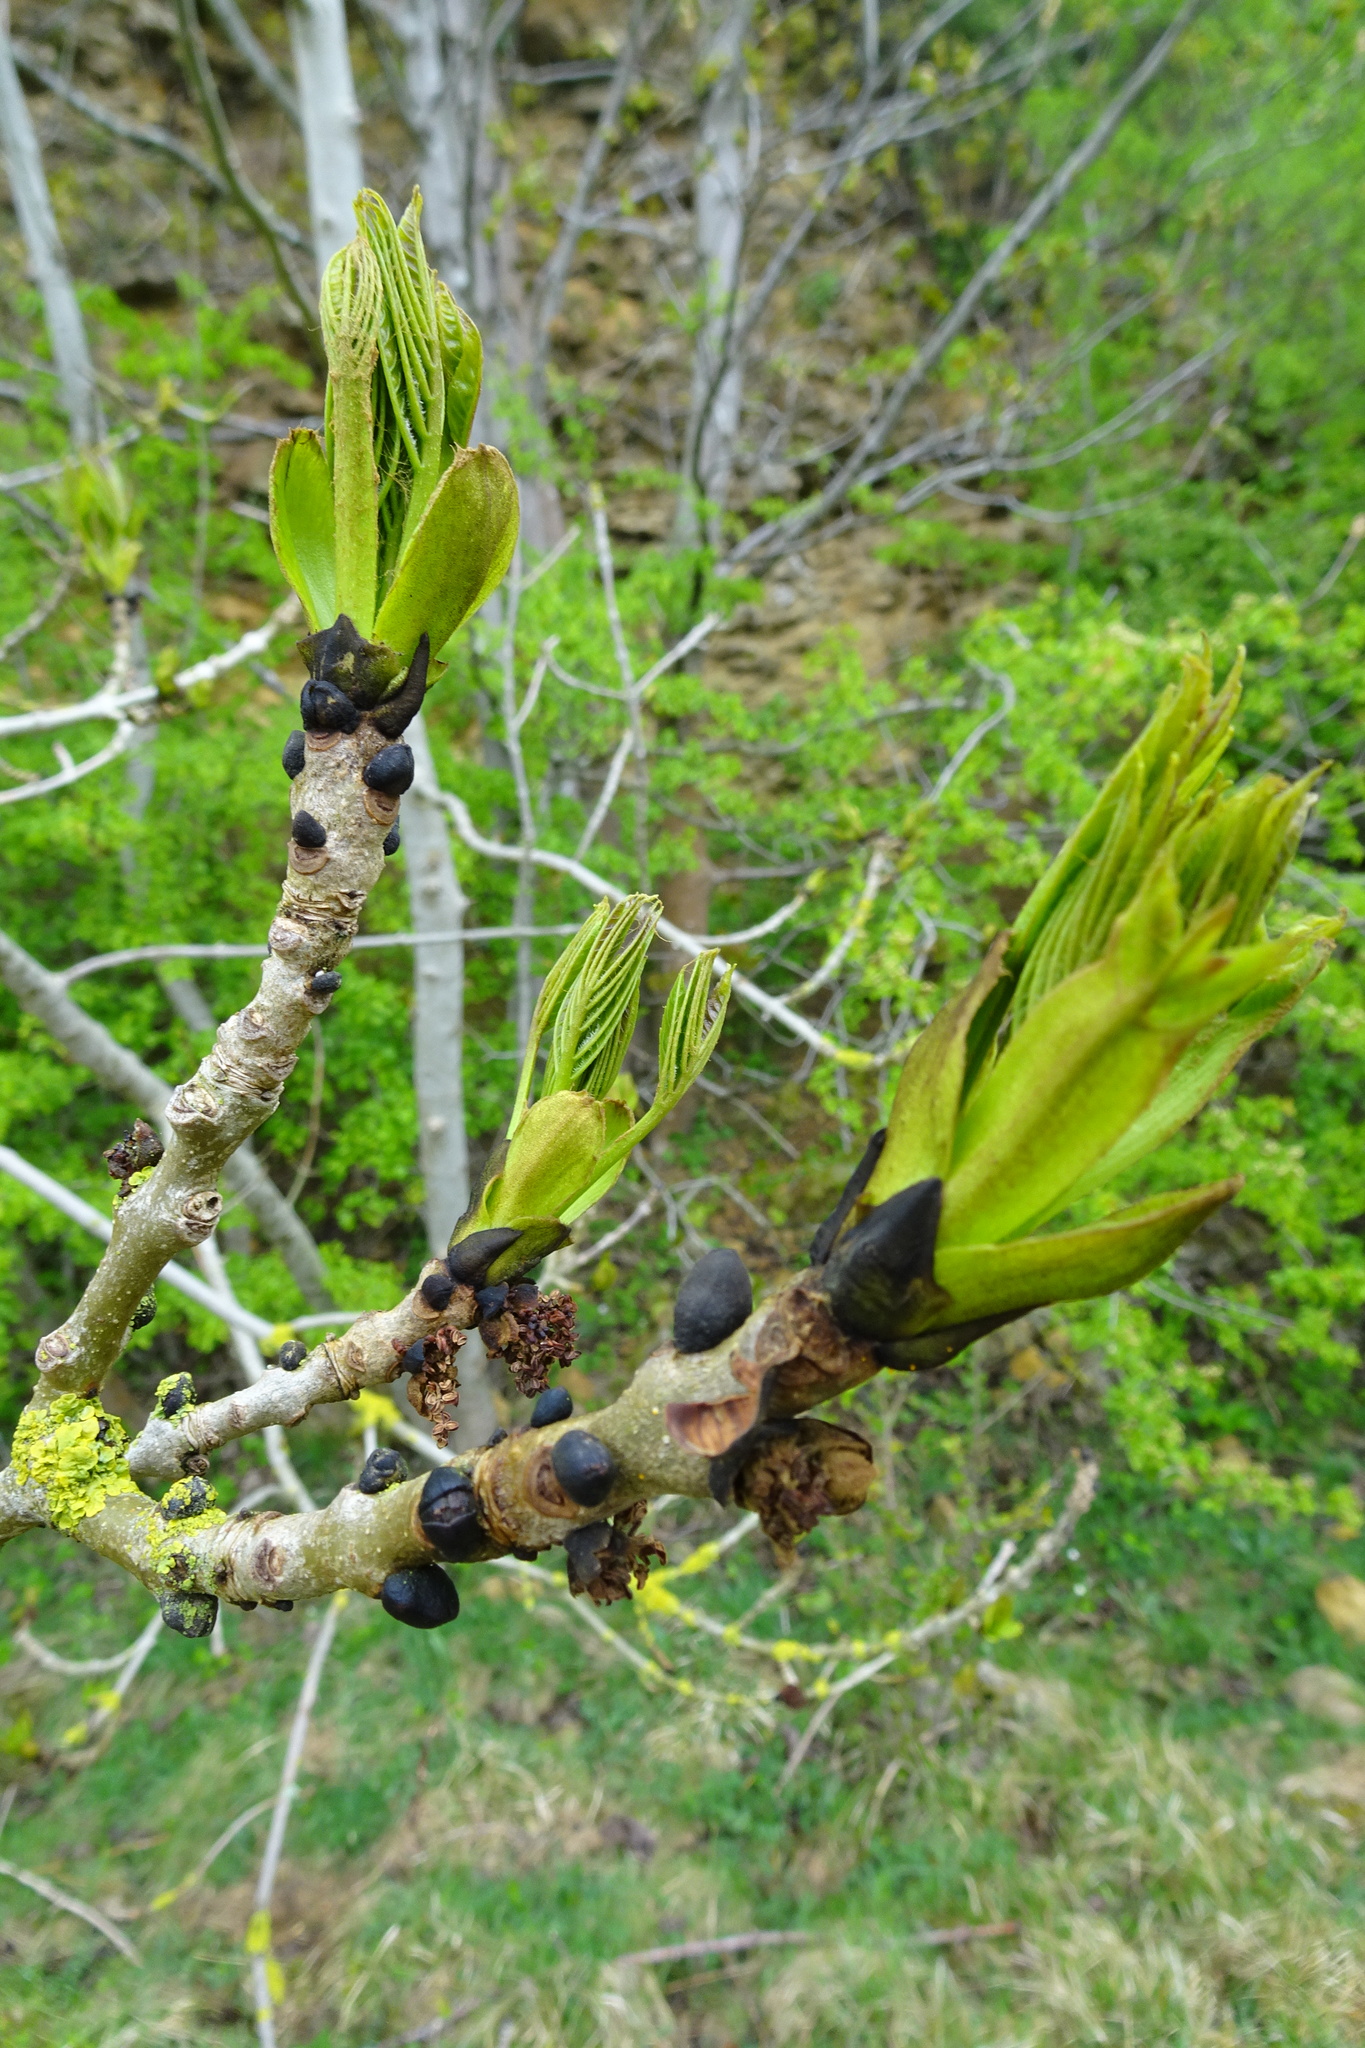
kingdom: Plantae
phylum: Tracheophyta
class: Magnoliopsida
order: Lamiales
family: Oleaceae
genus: Fraxinus
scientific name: Fraxinus excelsior
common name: European ash
